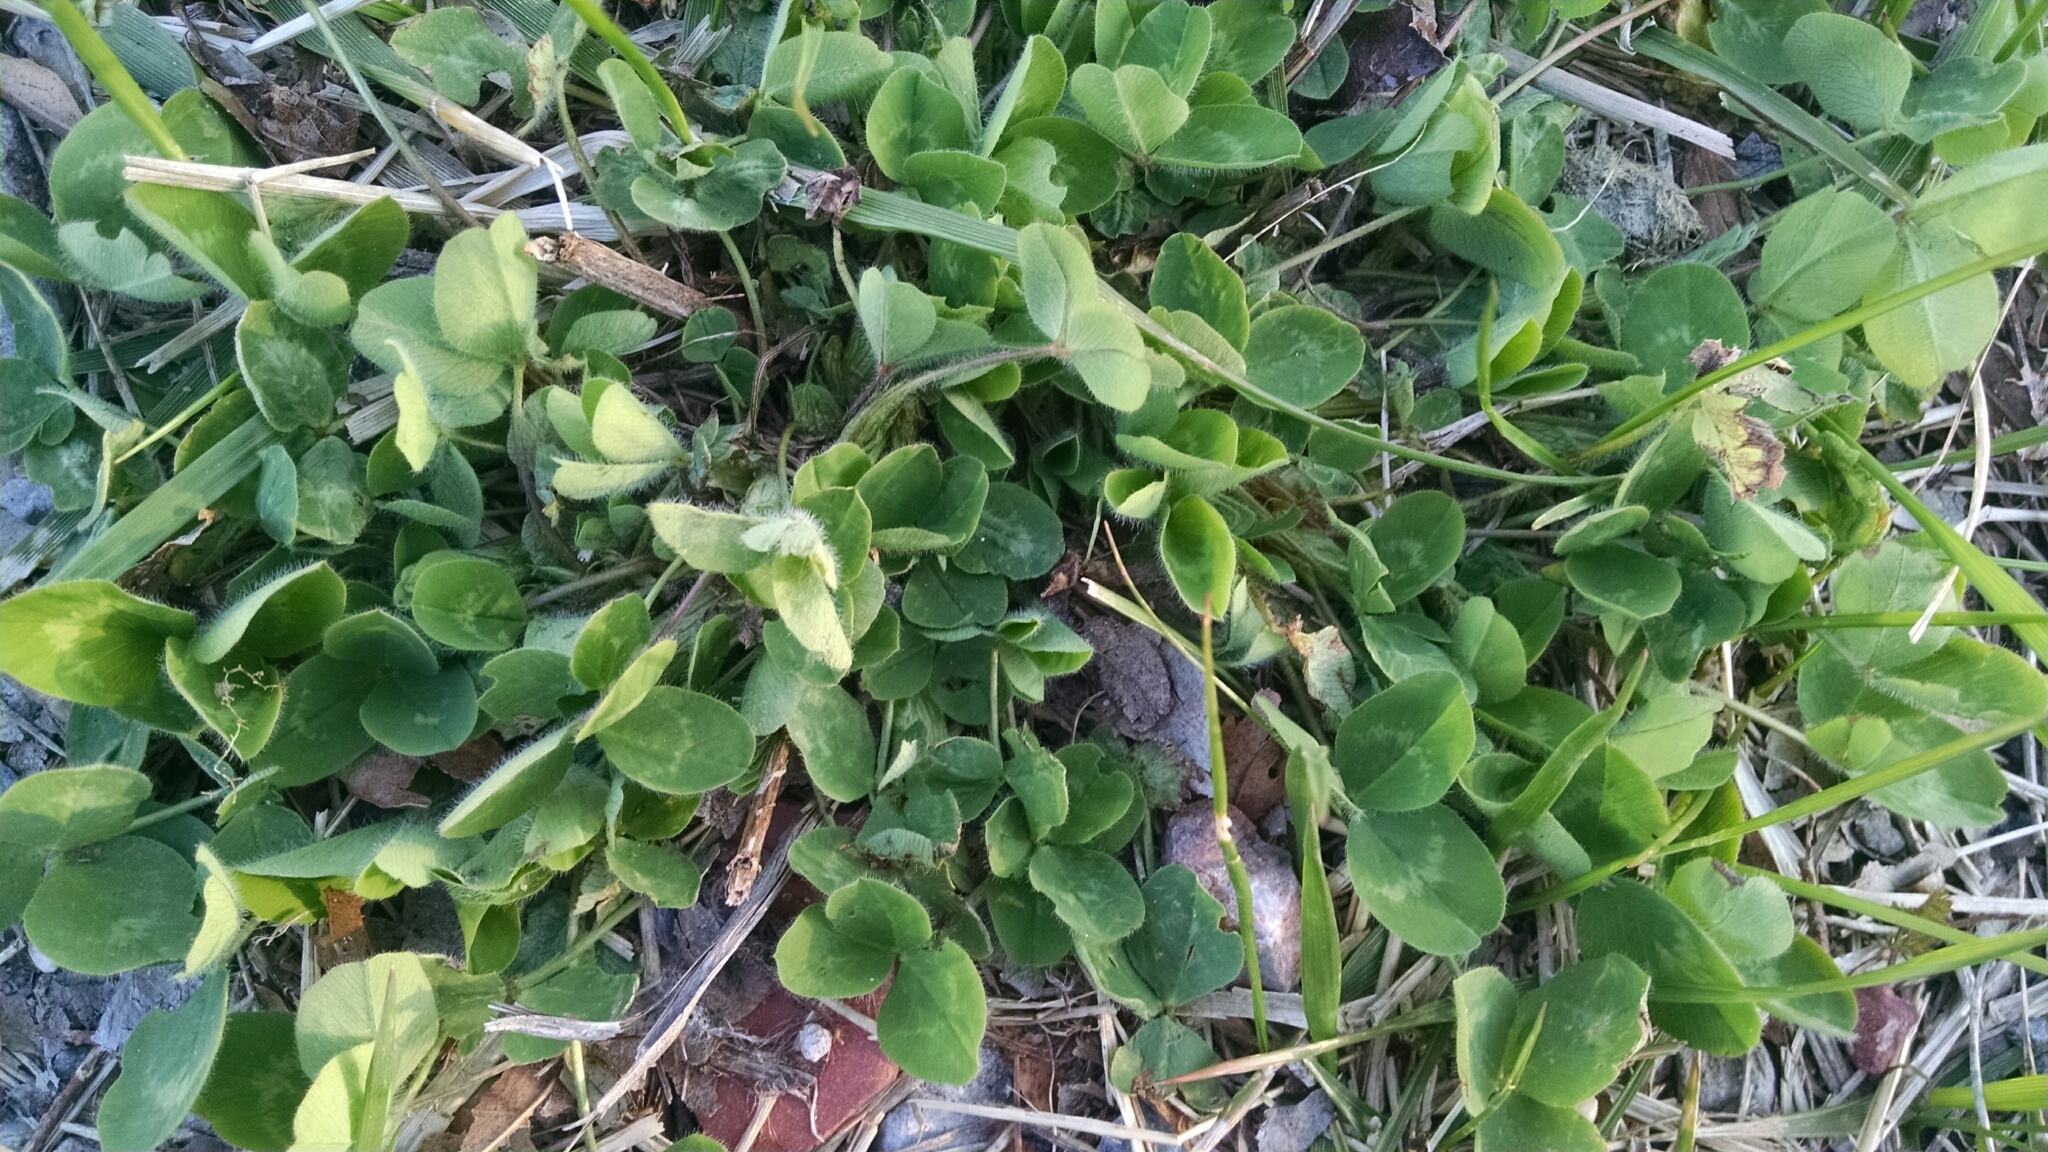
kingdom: Plantae
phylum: Tracheophyta
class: Magnoliopsida
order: Fabales
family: Fabaceae
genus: Trifolium
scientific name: Trifolium pratense
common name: Red clover
